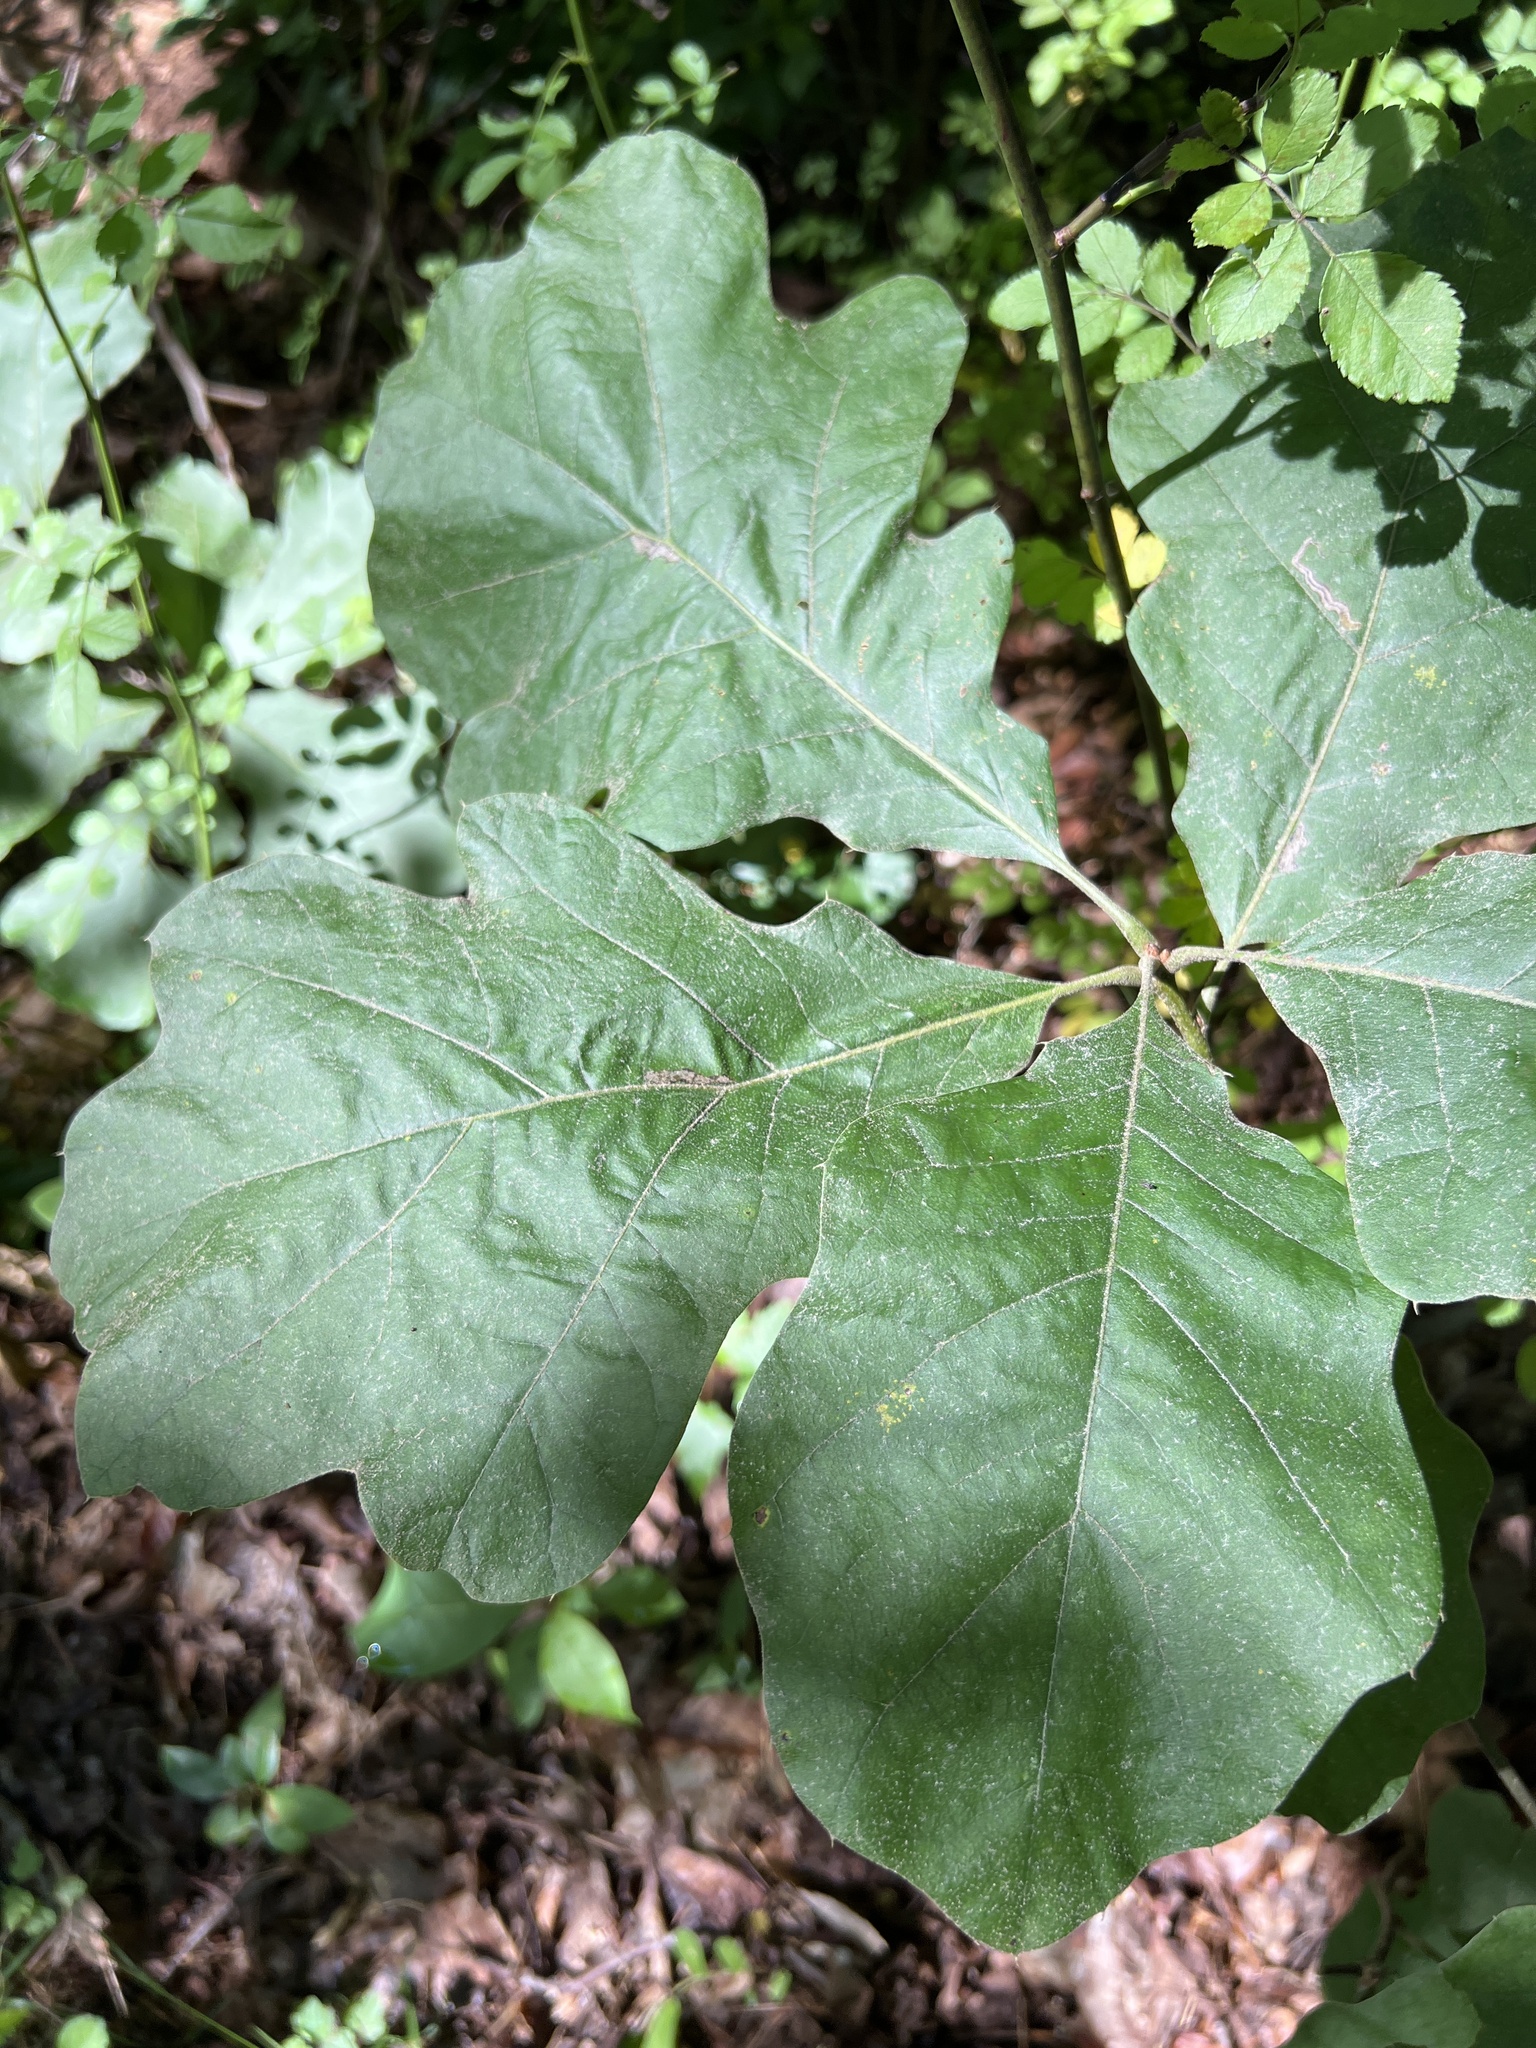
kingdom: Plantae
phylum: Tracheophyta
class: Magnoliopsida
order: Fagales
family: Fagaceae
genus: Quercus
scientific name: Quercus velutina
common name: Black oak
